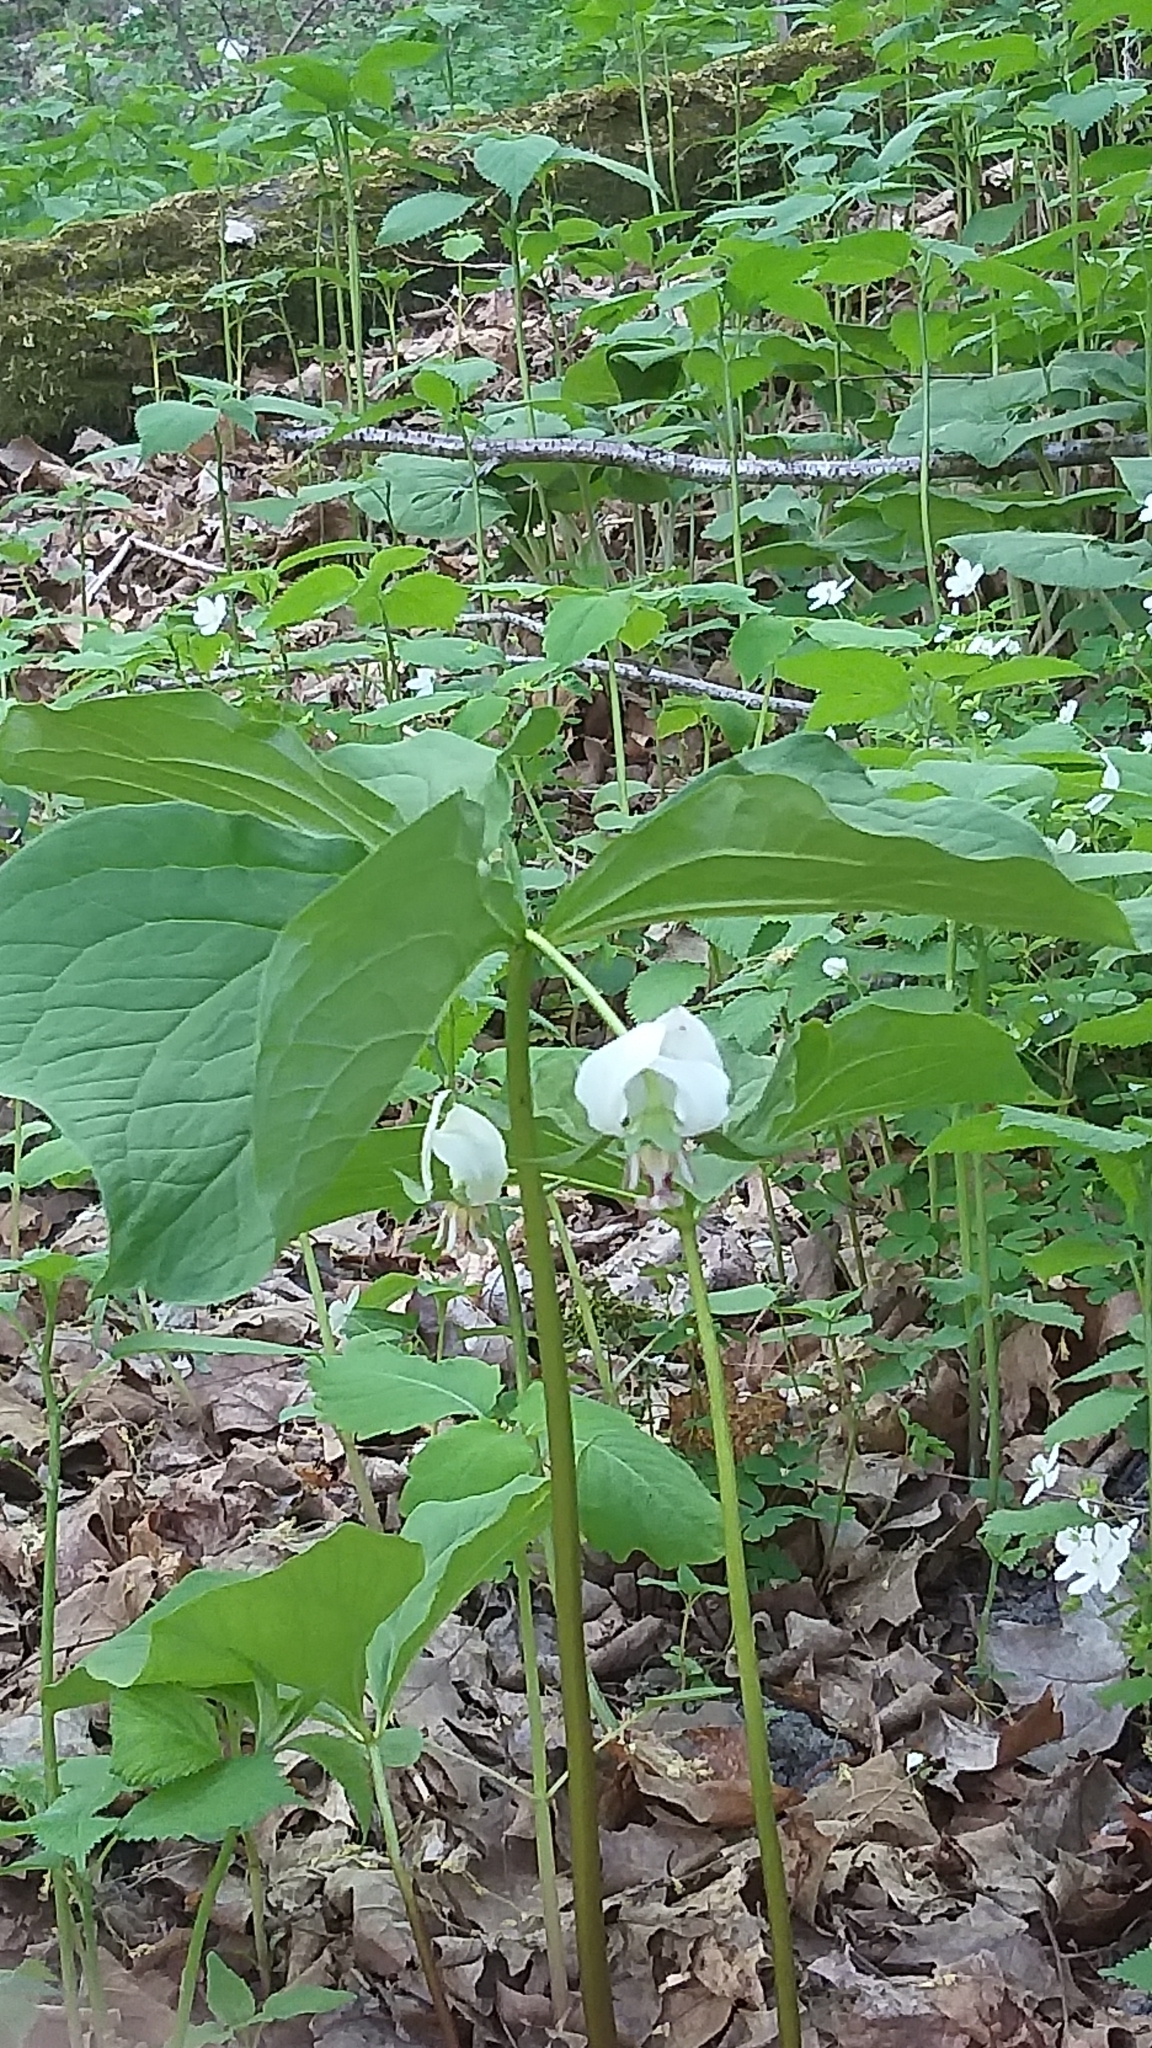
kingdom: Plantae
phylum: Tracheophyta
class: Liliopsida
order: Liliales
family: Melanthiaceae
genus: Trillium
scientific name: Trillium flexipes
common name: Drooping trillium
